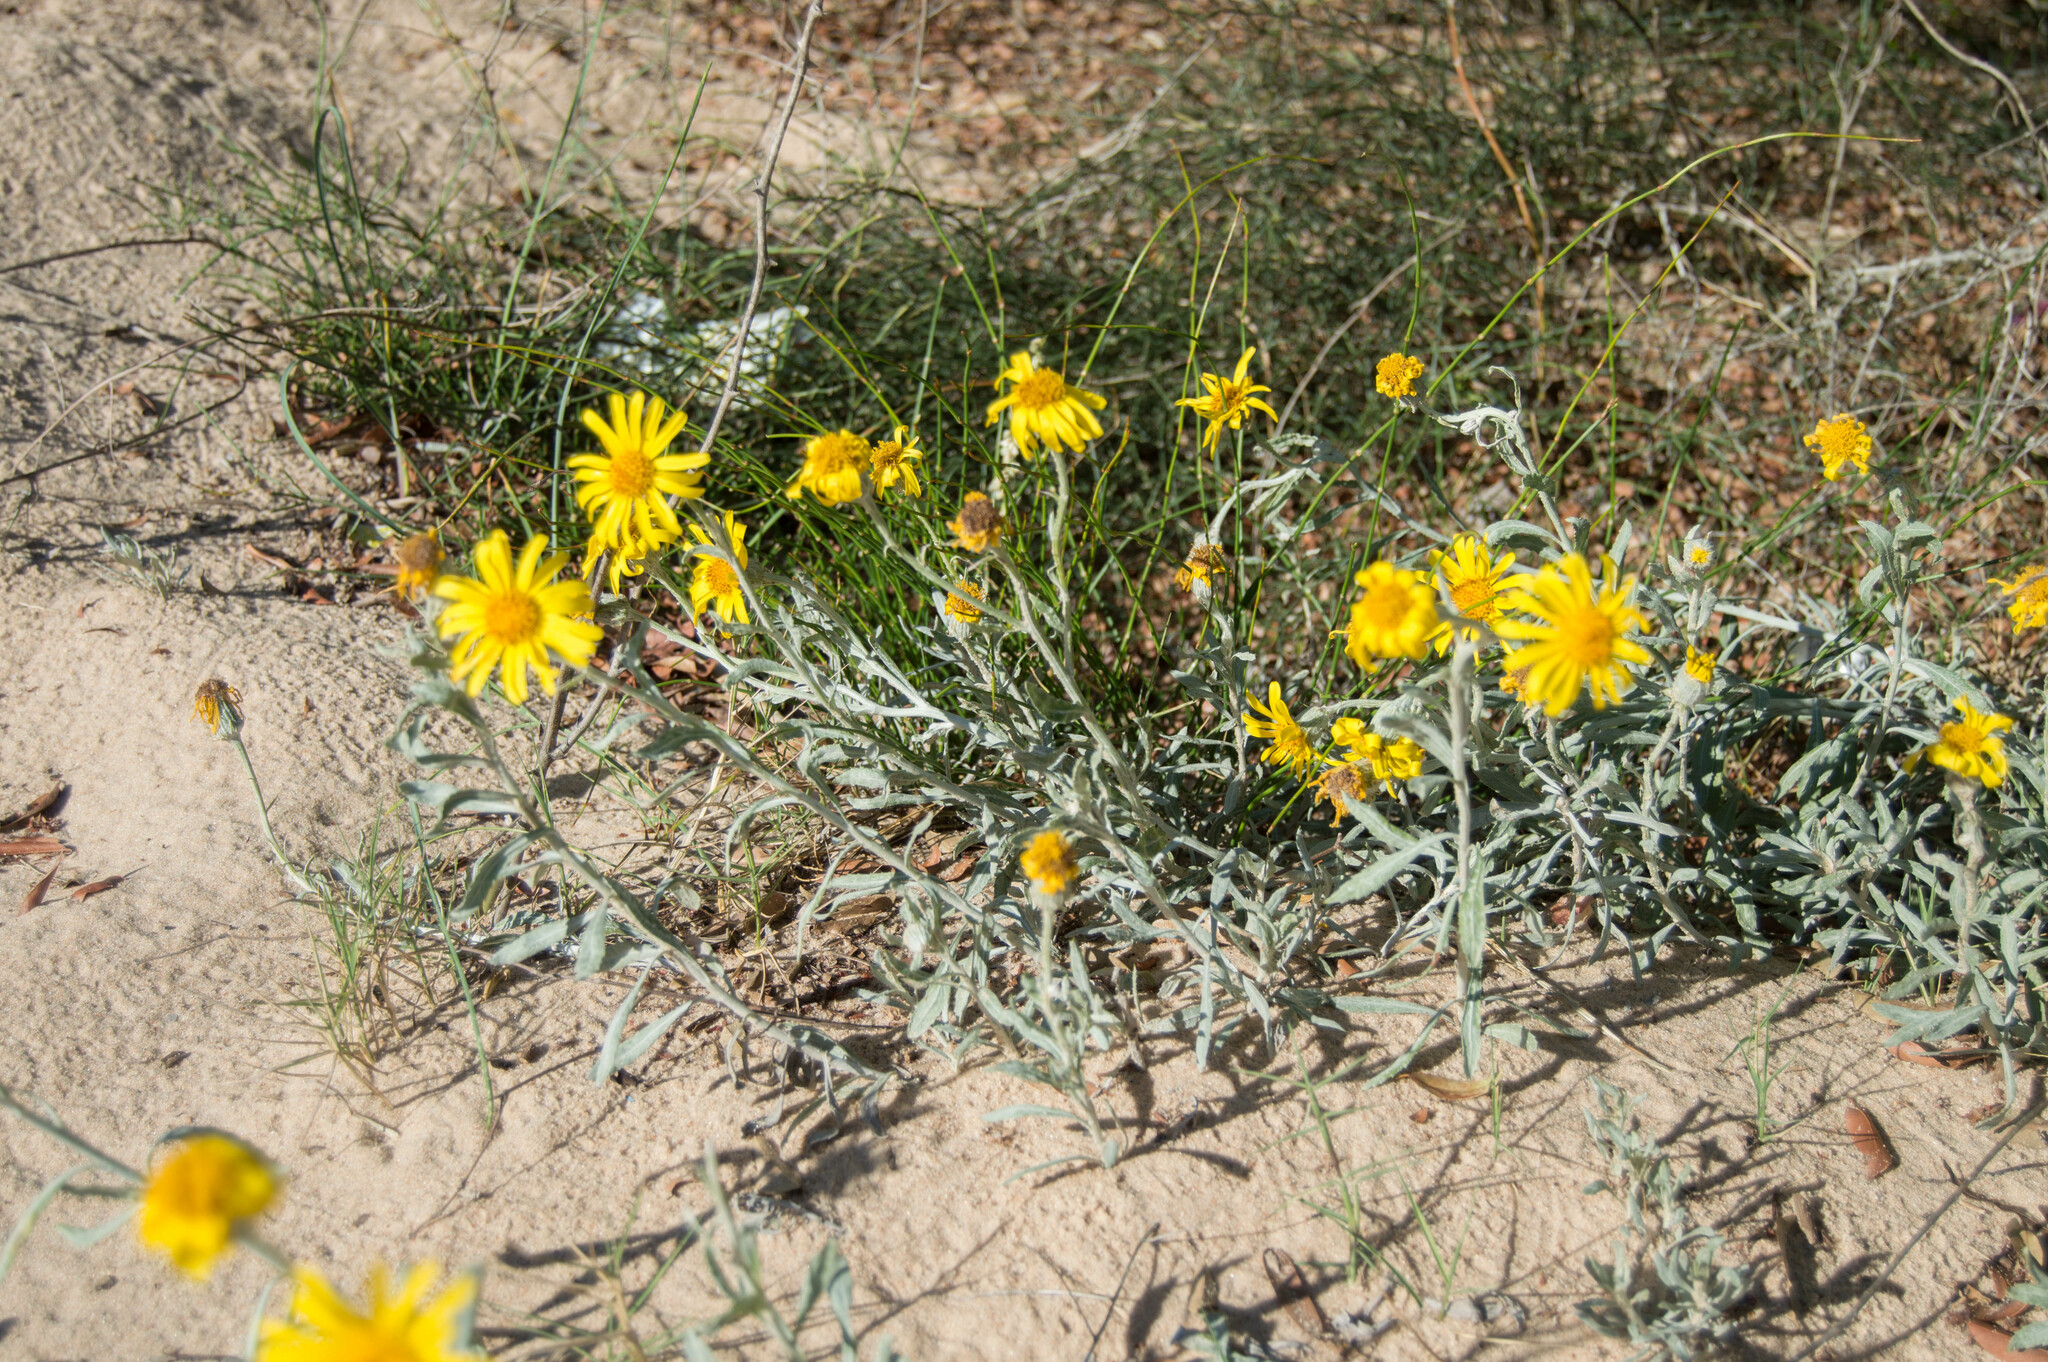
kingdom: Plantae
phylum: Tracheophyta
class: Magnoliopsida
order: Asterales
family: Asteraceae
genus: Senecio
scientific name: Senecio crassiflorus
